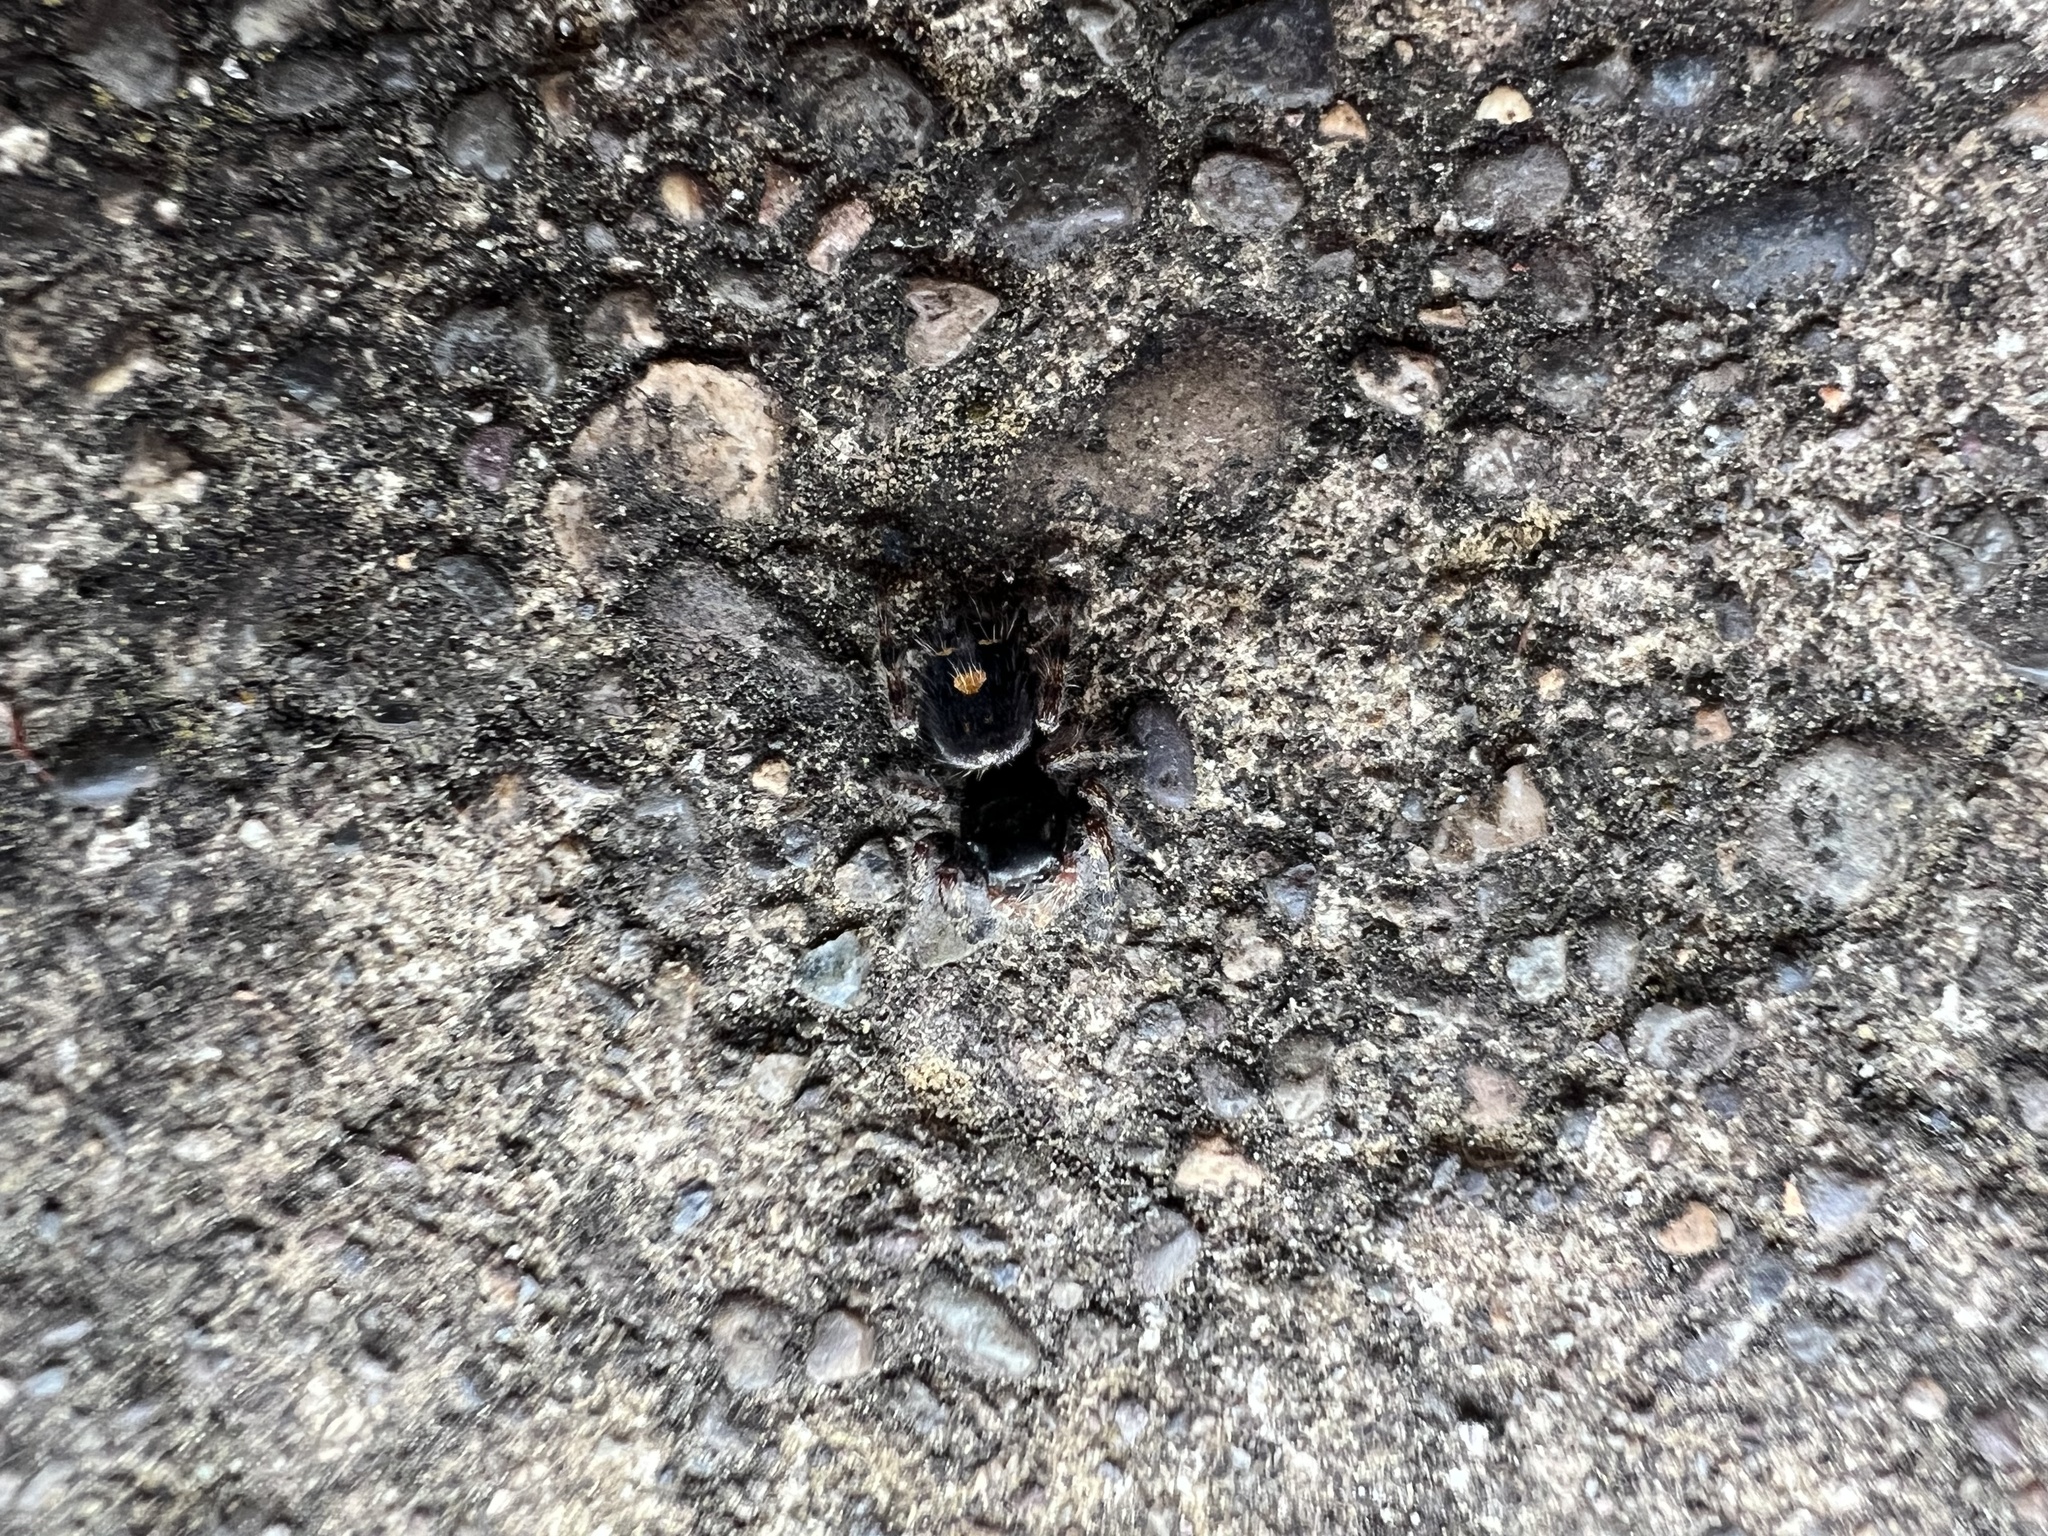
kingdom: Animalia
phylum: Arthropoda
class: Arachnida
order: Araneae
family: Salticidae
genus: Phidippus
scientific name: Phidippus audax
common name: Bold jumper
